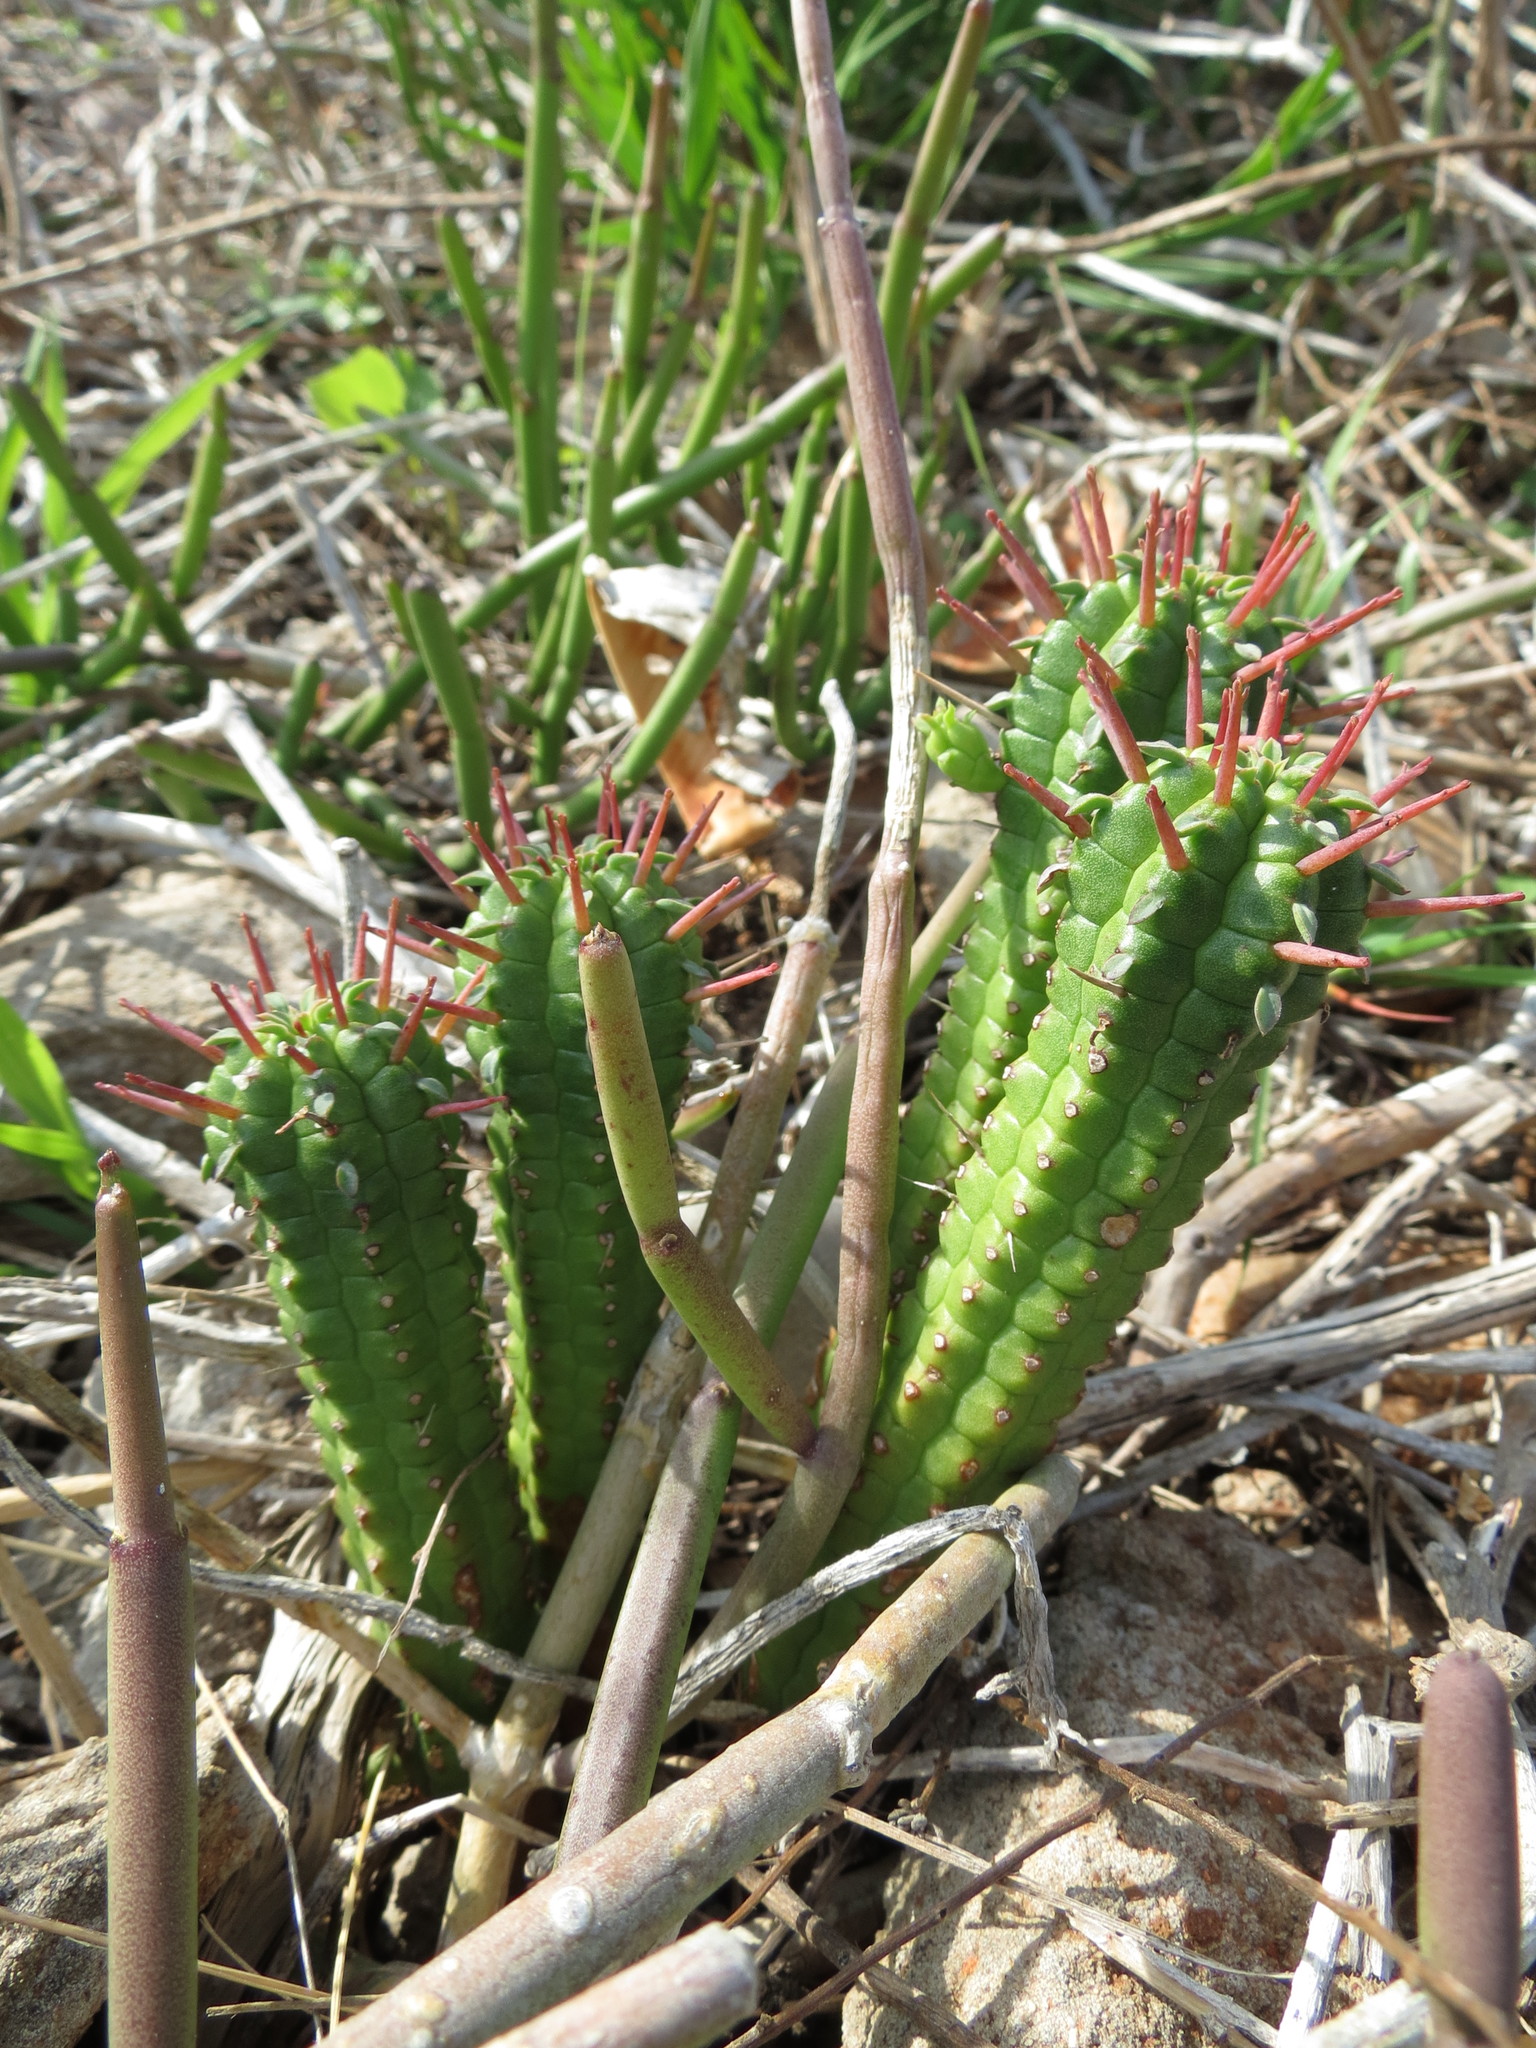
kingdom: Plantae
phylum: Tracheophyta
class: Magnoliopsida
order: Malpighiales
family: Euphorbiaceae
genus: Euphorbia
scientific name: Euphorbia mammillaris
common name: Corkscrew
